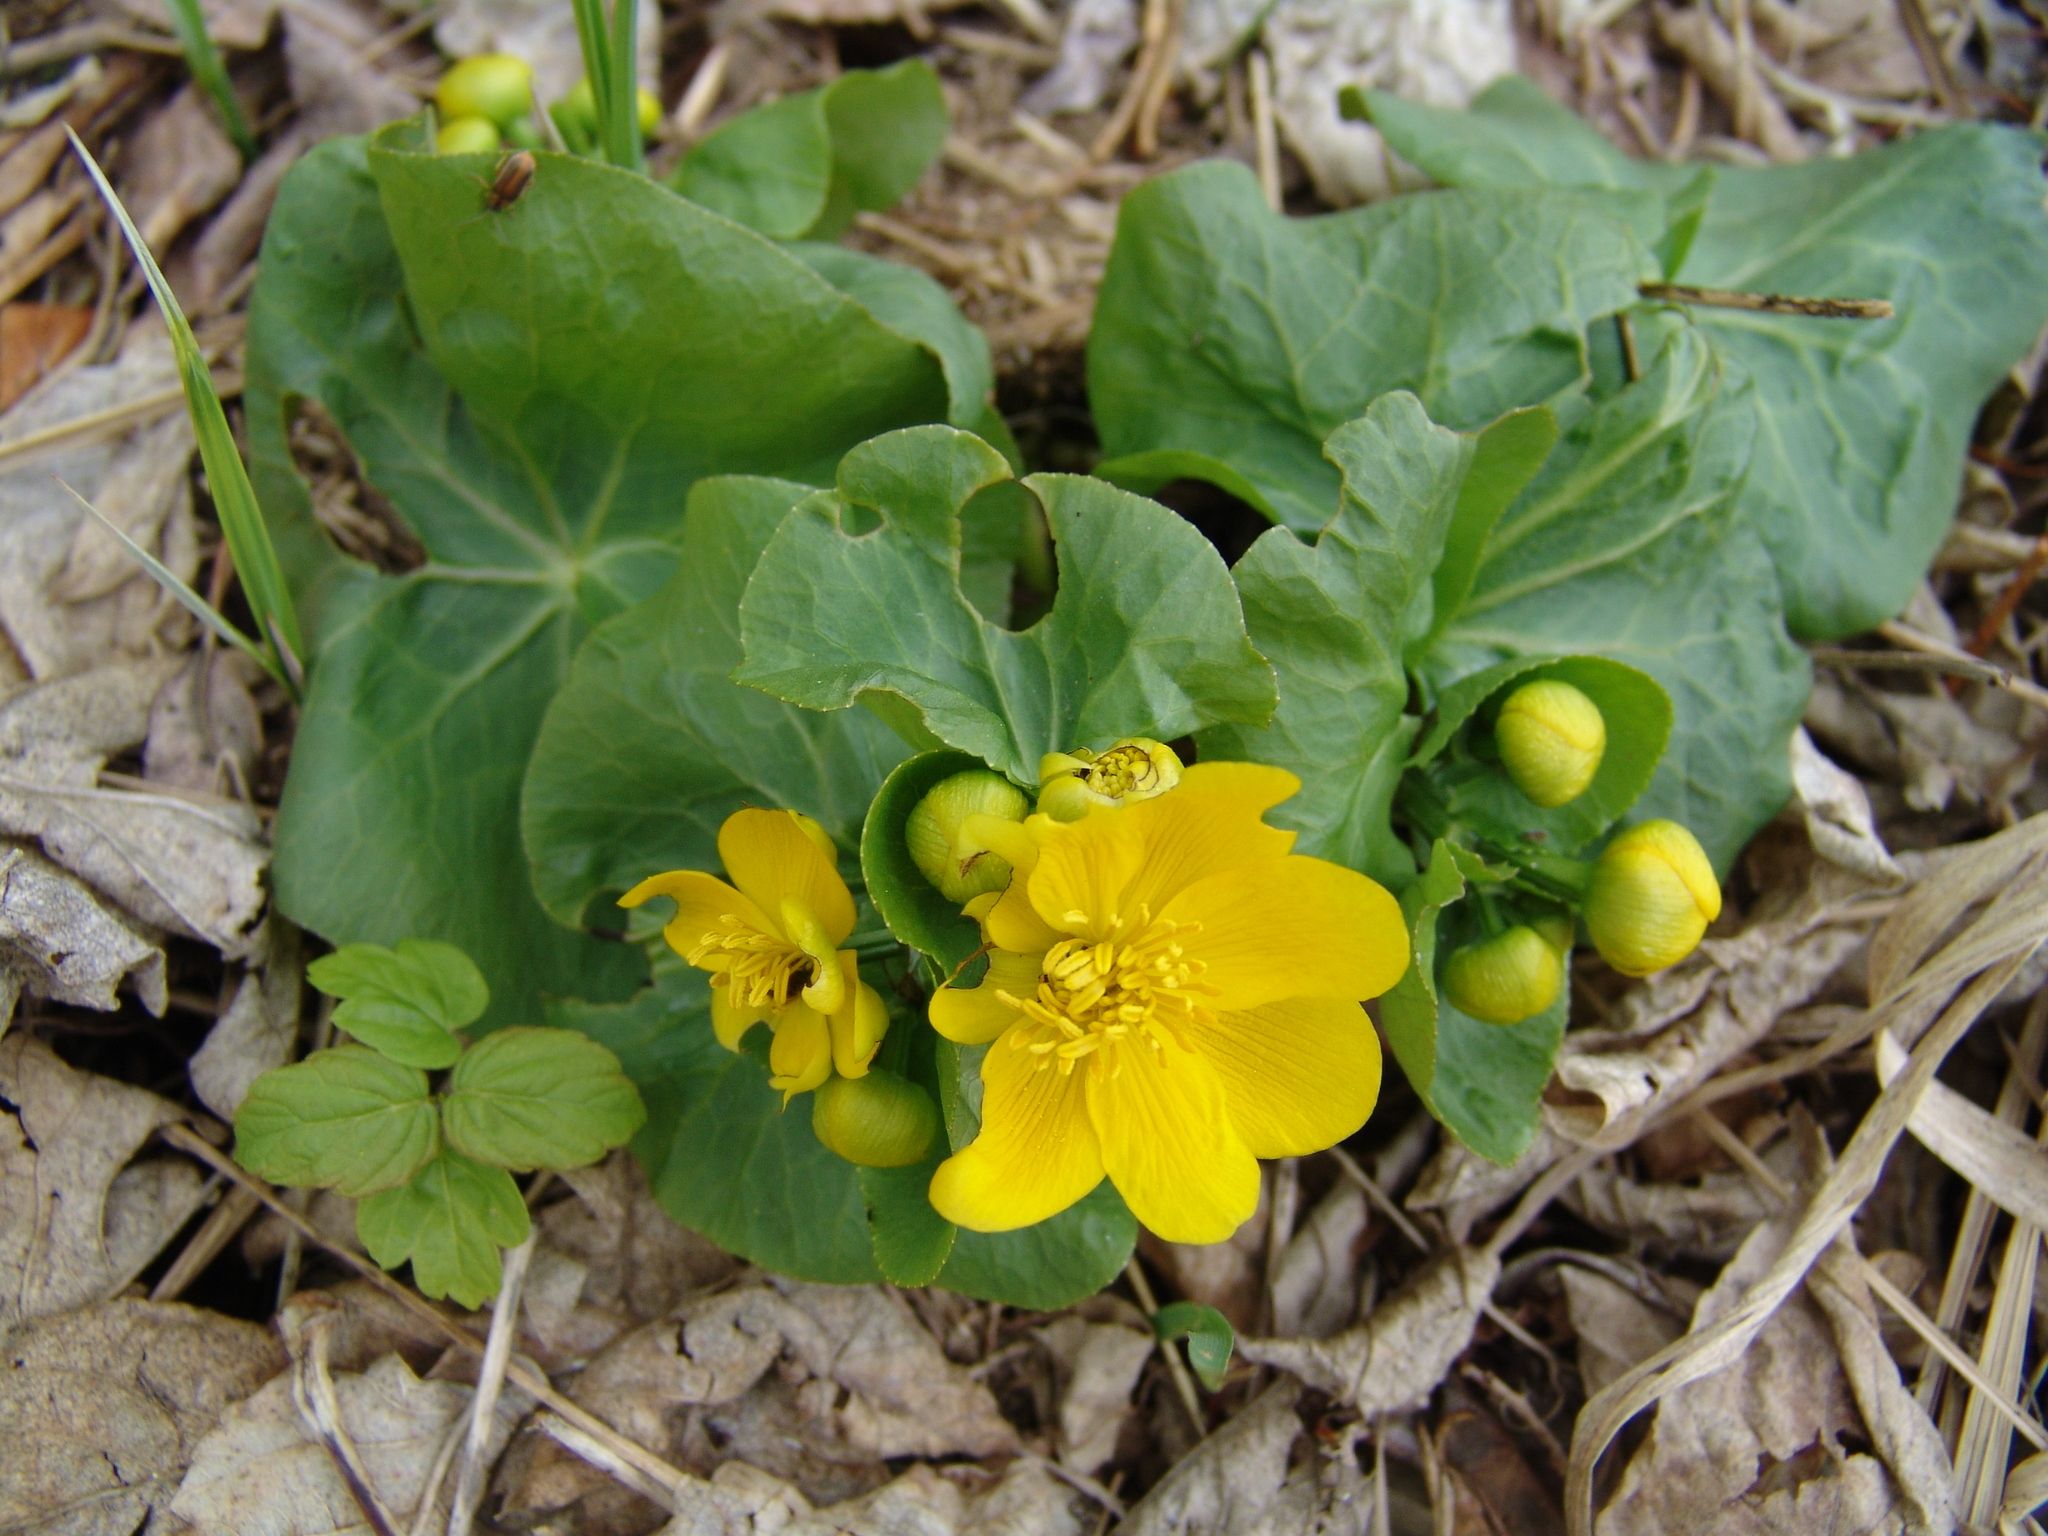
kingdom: Plantae
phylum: Tracheophyta
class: Magnoliopsida
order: Ranunculales
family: Ranunculaceae
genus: Caltha
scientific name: Caltha palustris
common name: Marsh marigold
